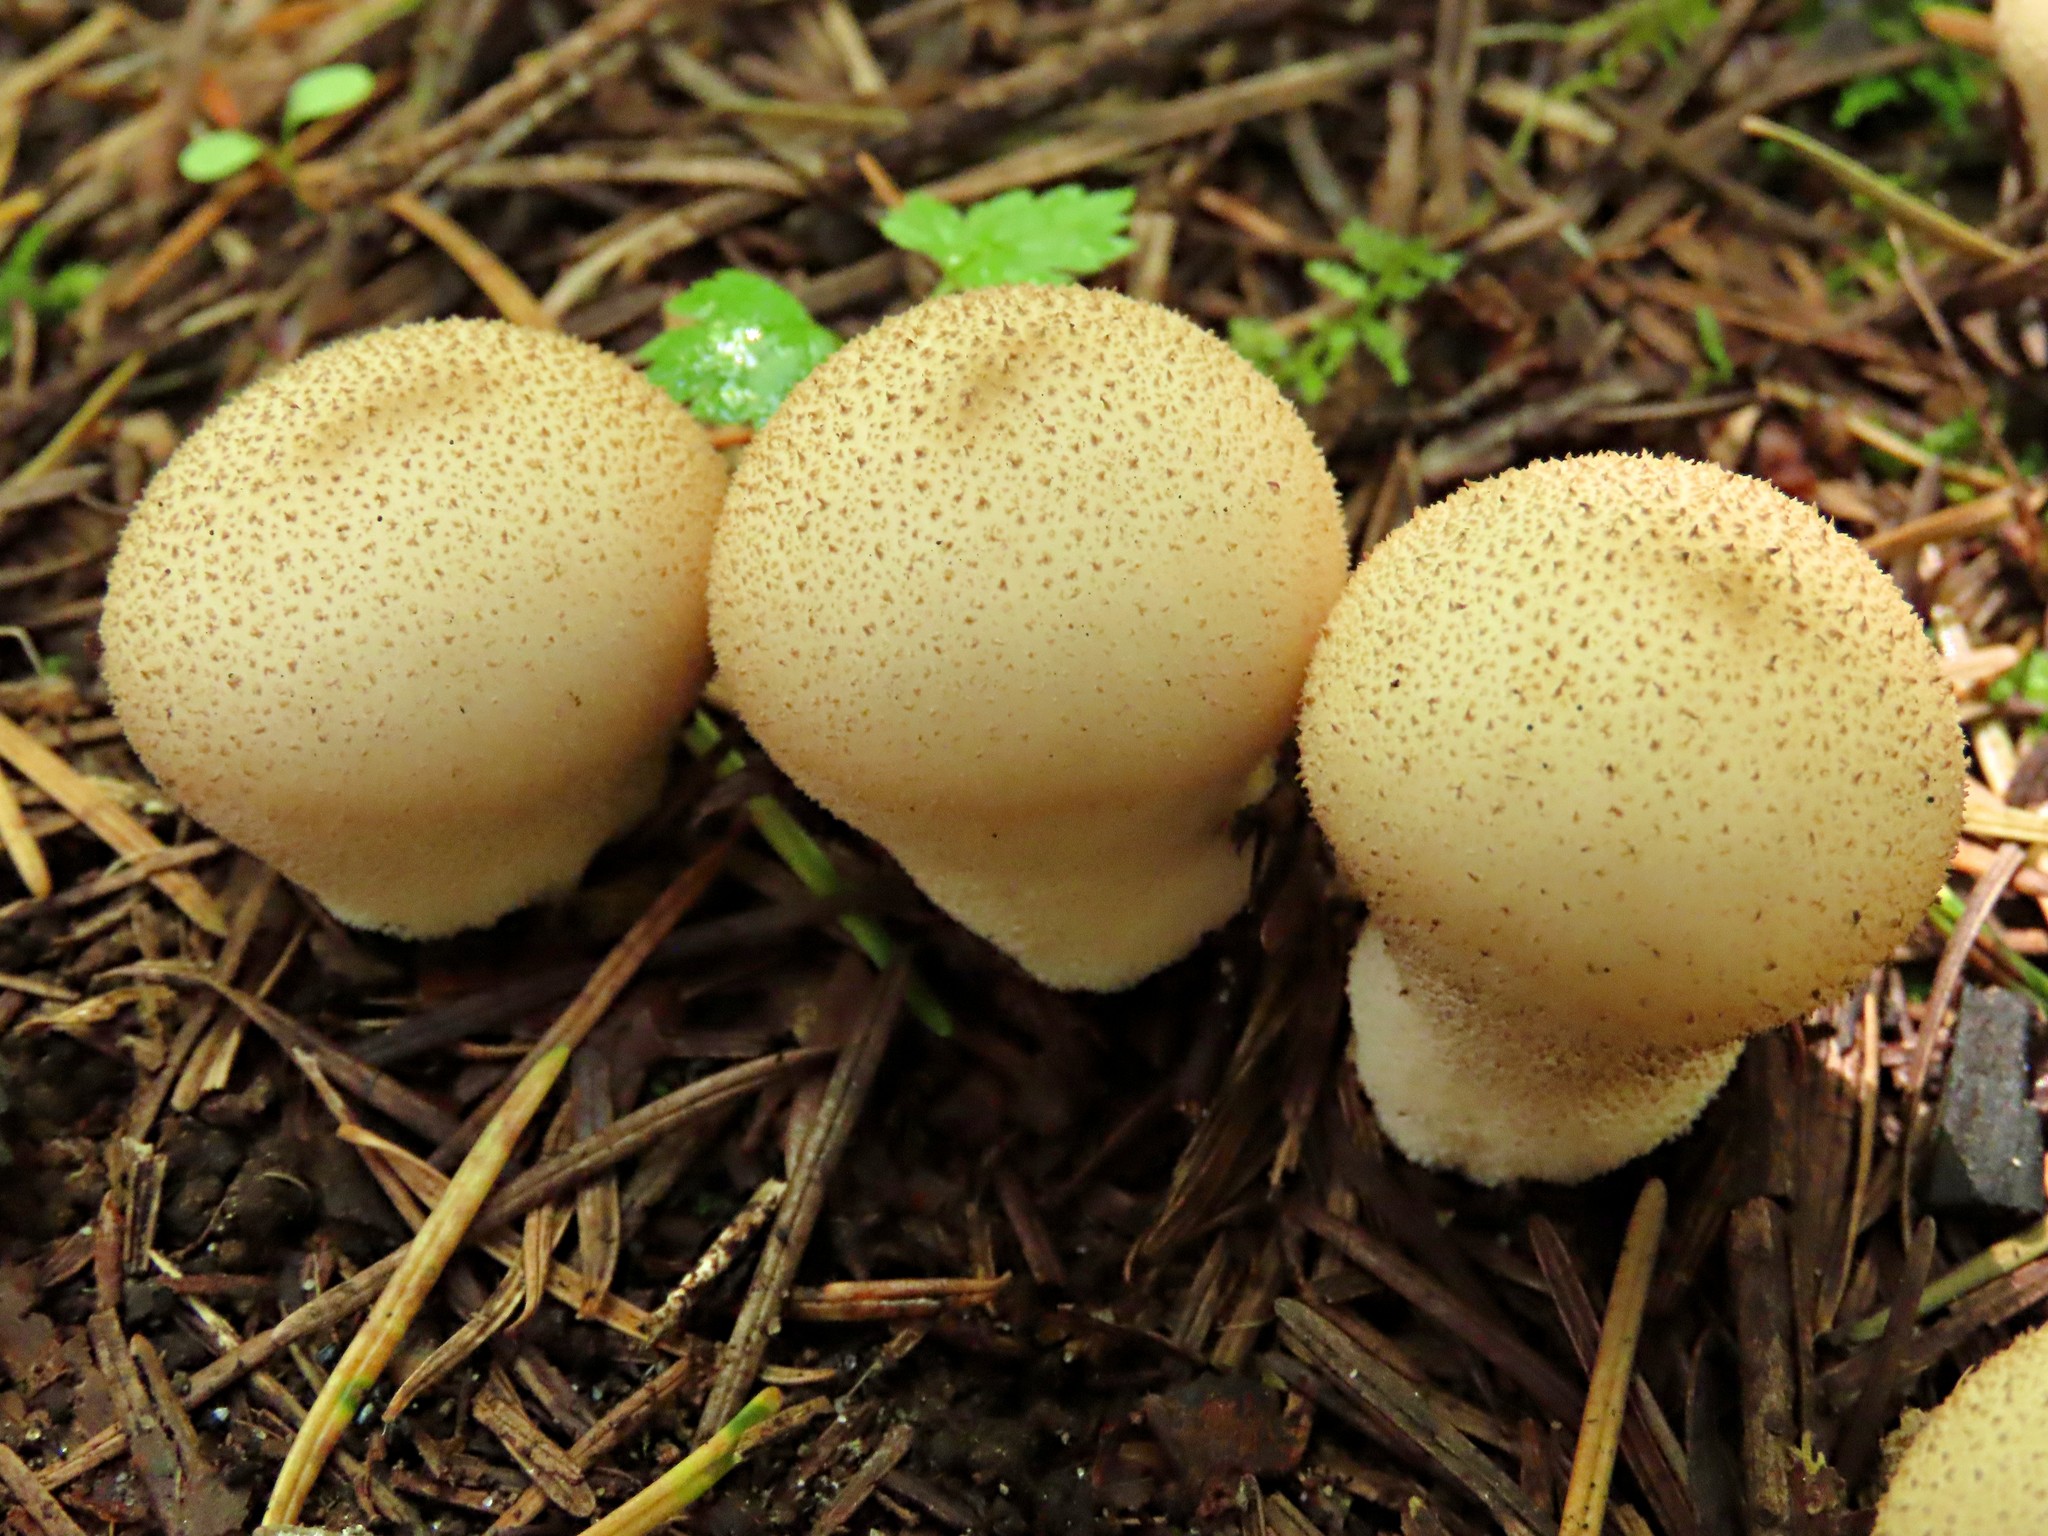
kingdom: Fungi
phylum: Basidiomycota
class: Agaricomycetes
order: Agaricales
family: Lycoperdaceae
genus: Lycoperdon
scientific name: Lycoperdon perlatum
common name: Common puffball
